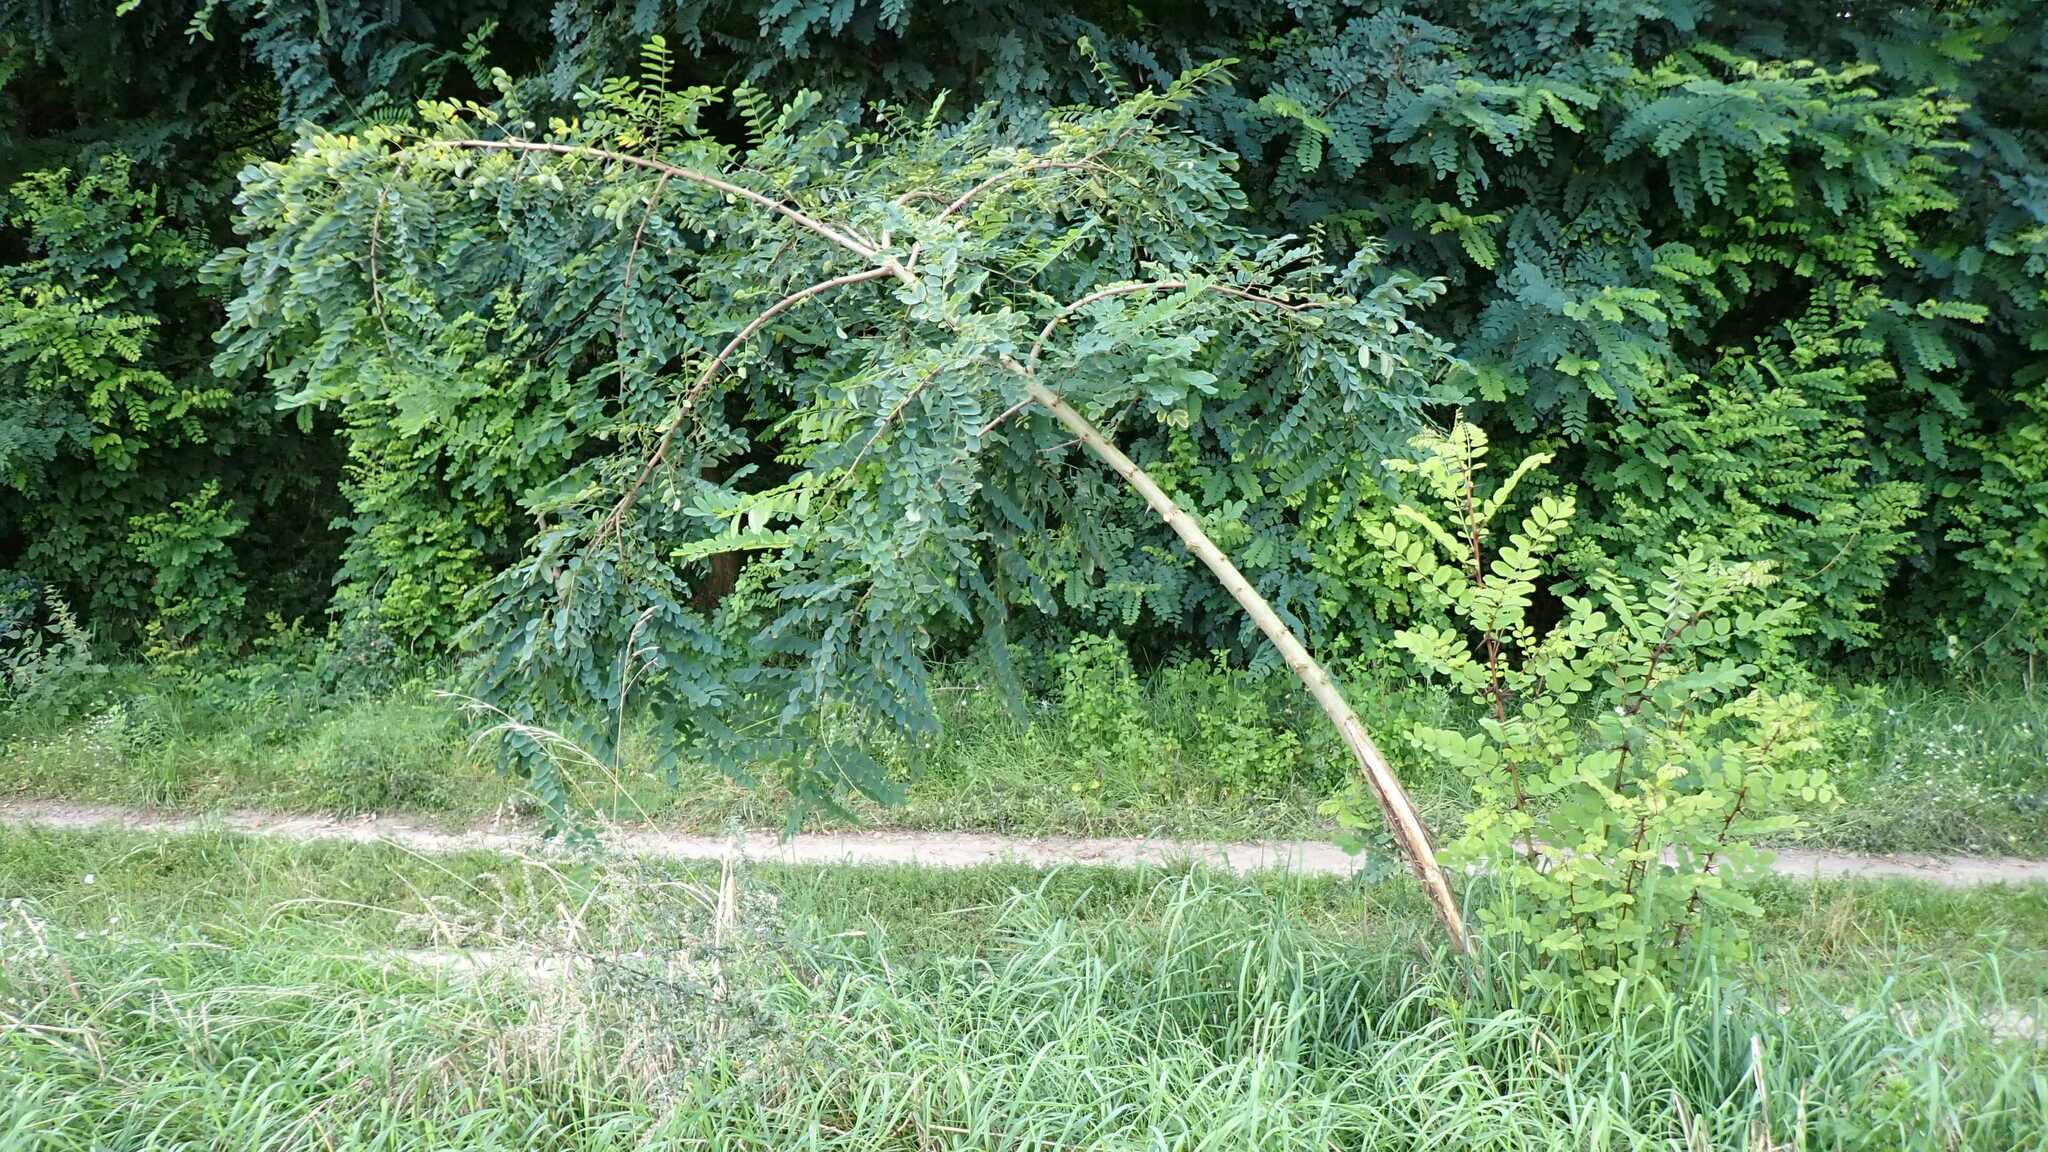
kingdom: Plantae
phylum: Tracheophyta
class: Magnoliopsida
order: Fabales
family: Fabaceae
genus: Robinia
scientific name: Robinia pseudoacacia
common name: Black locust
